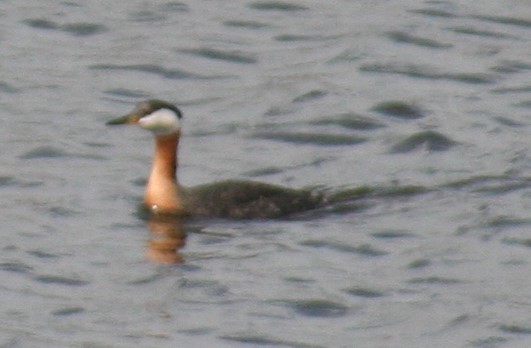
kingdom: Animalia
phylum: Chordata
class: Aves
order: Podicipediformes
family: Podicipedidae
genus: Podiceps
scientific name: Podiceps grisegena
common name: Red-necked grebe
